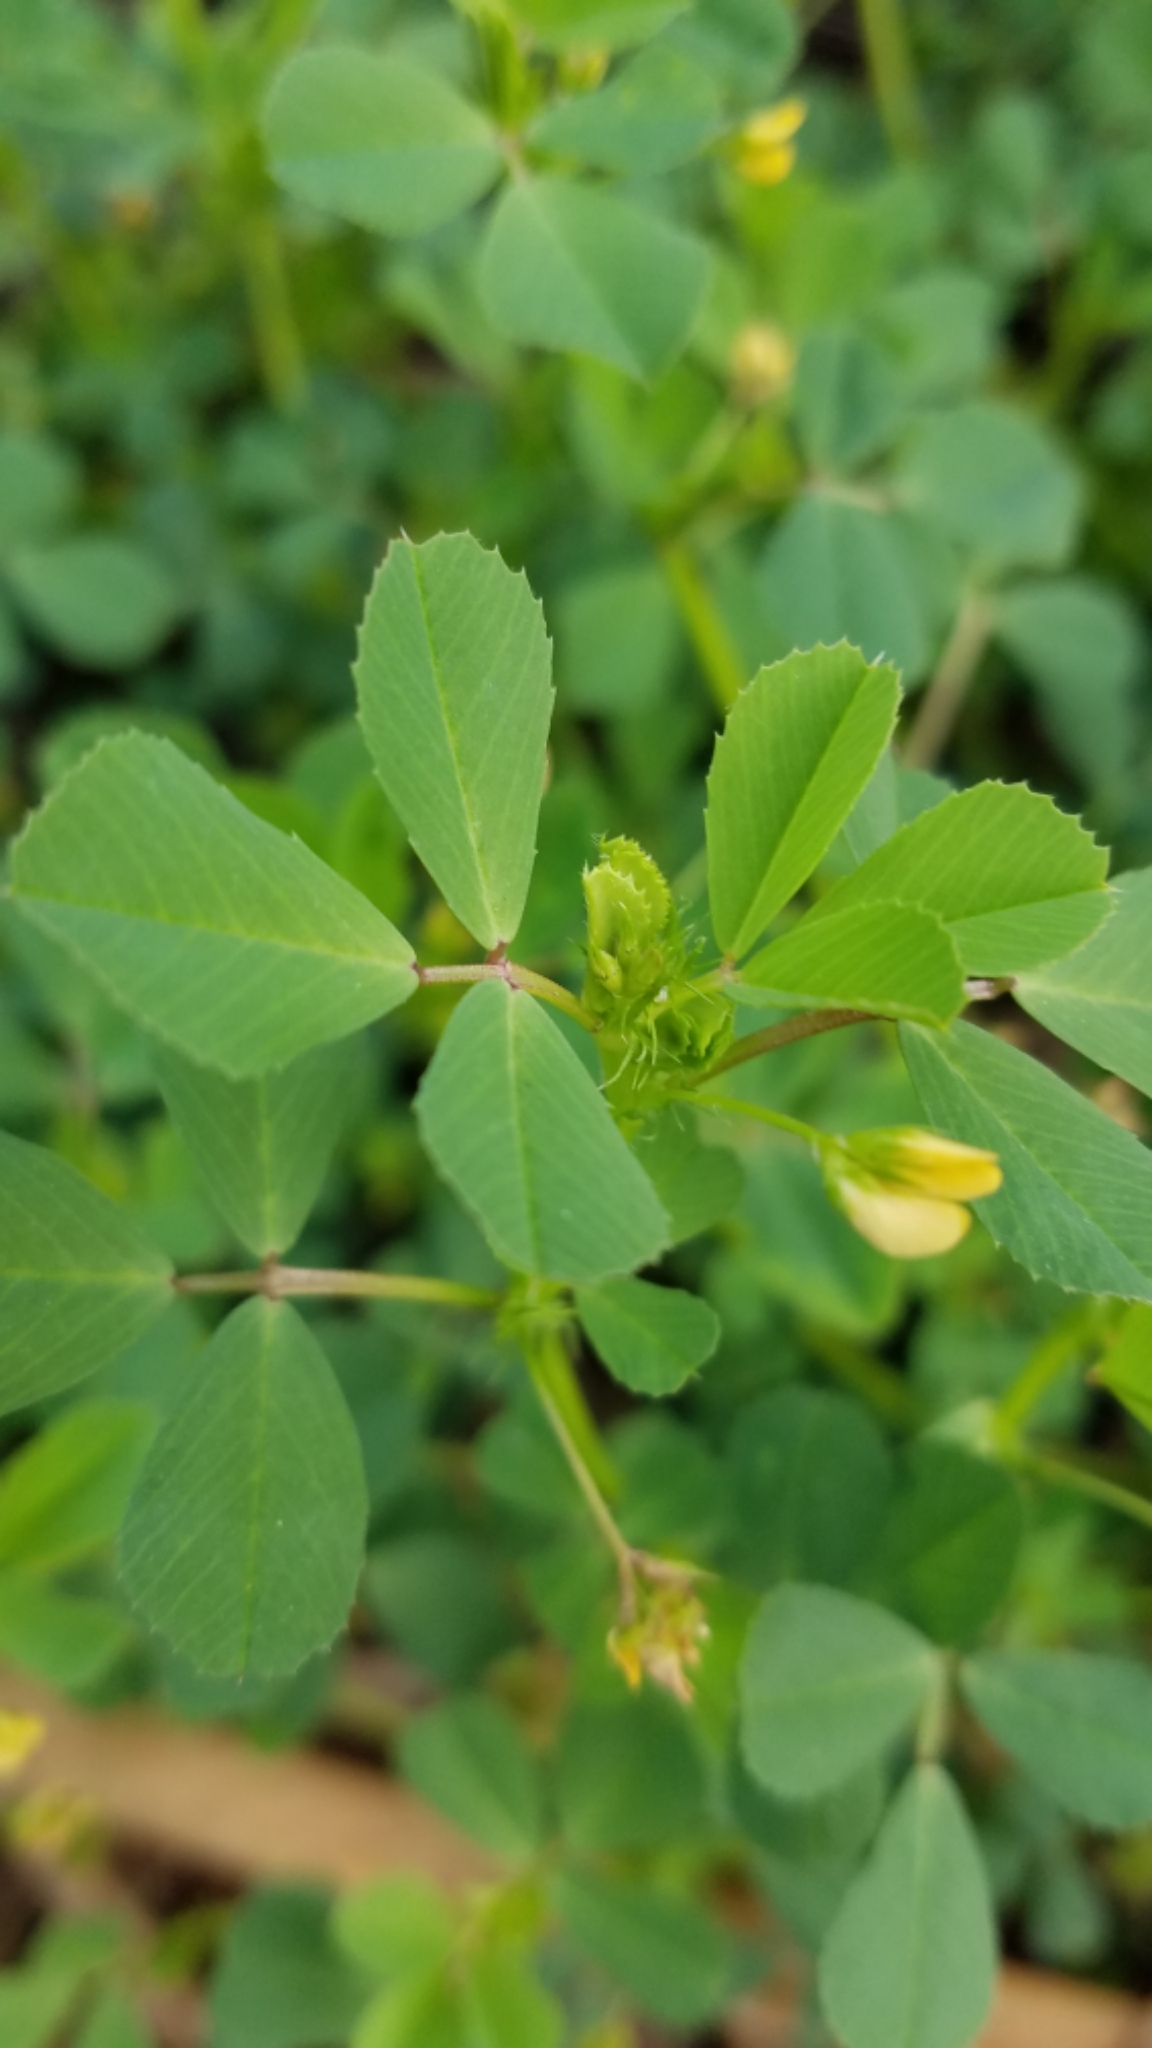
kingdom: Plantae
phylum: Tracheophyta
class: Magnoliopsida
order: Fabales
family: Fabaceae
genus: Medicago
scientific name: Medicago polymorpha
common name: Burclover
